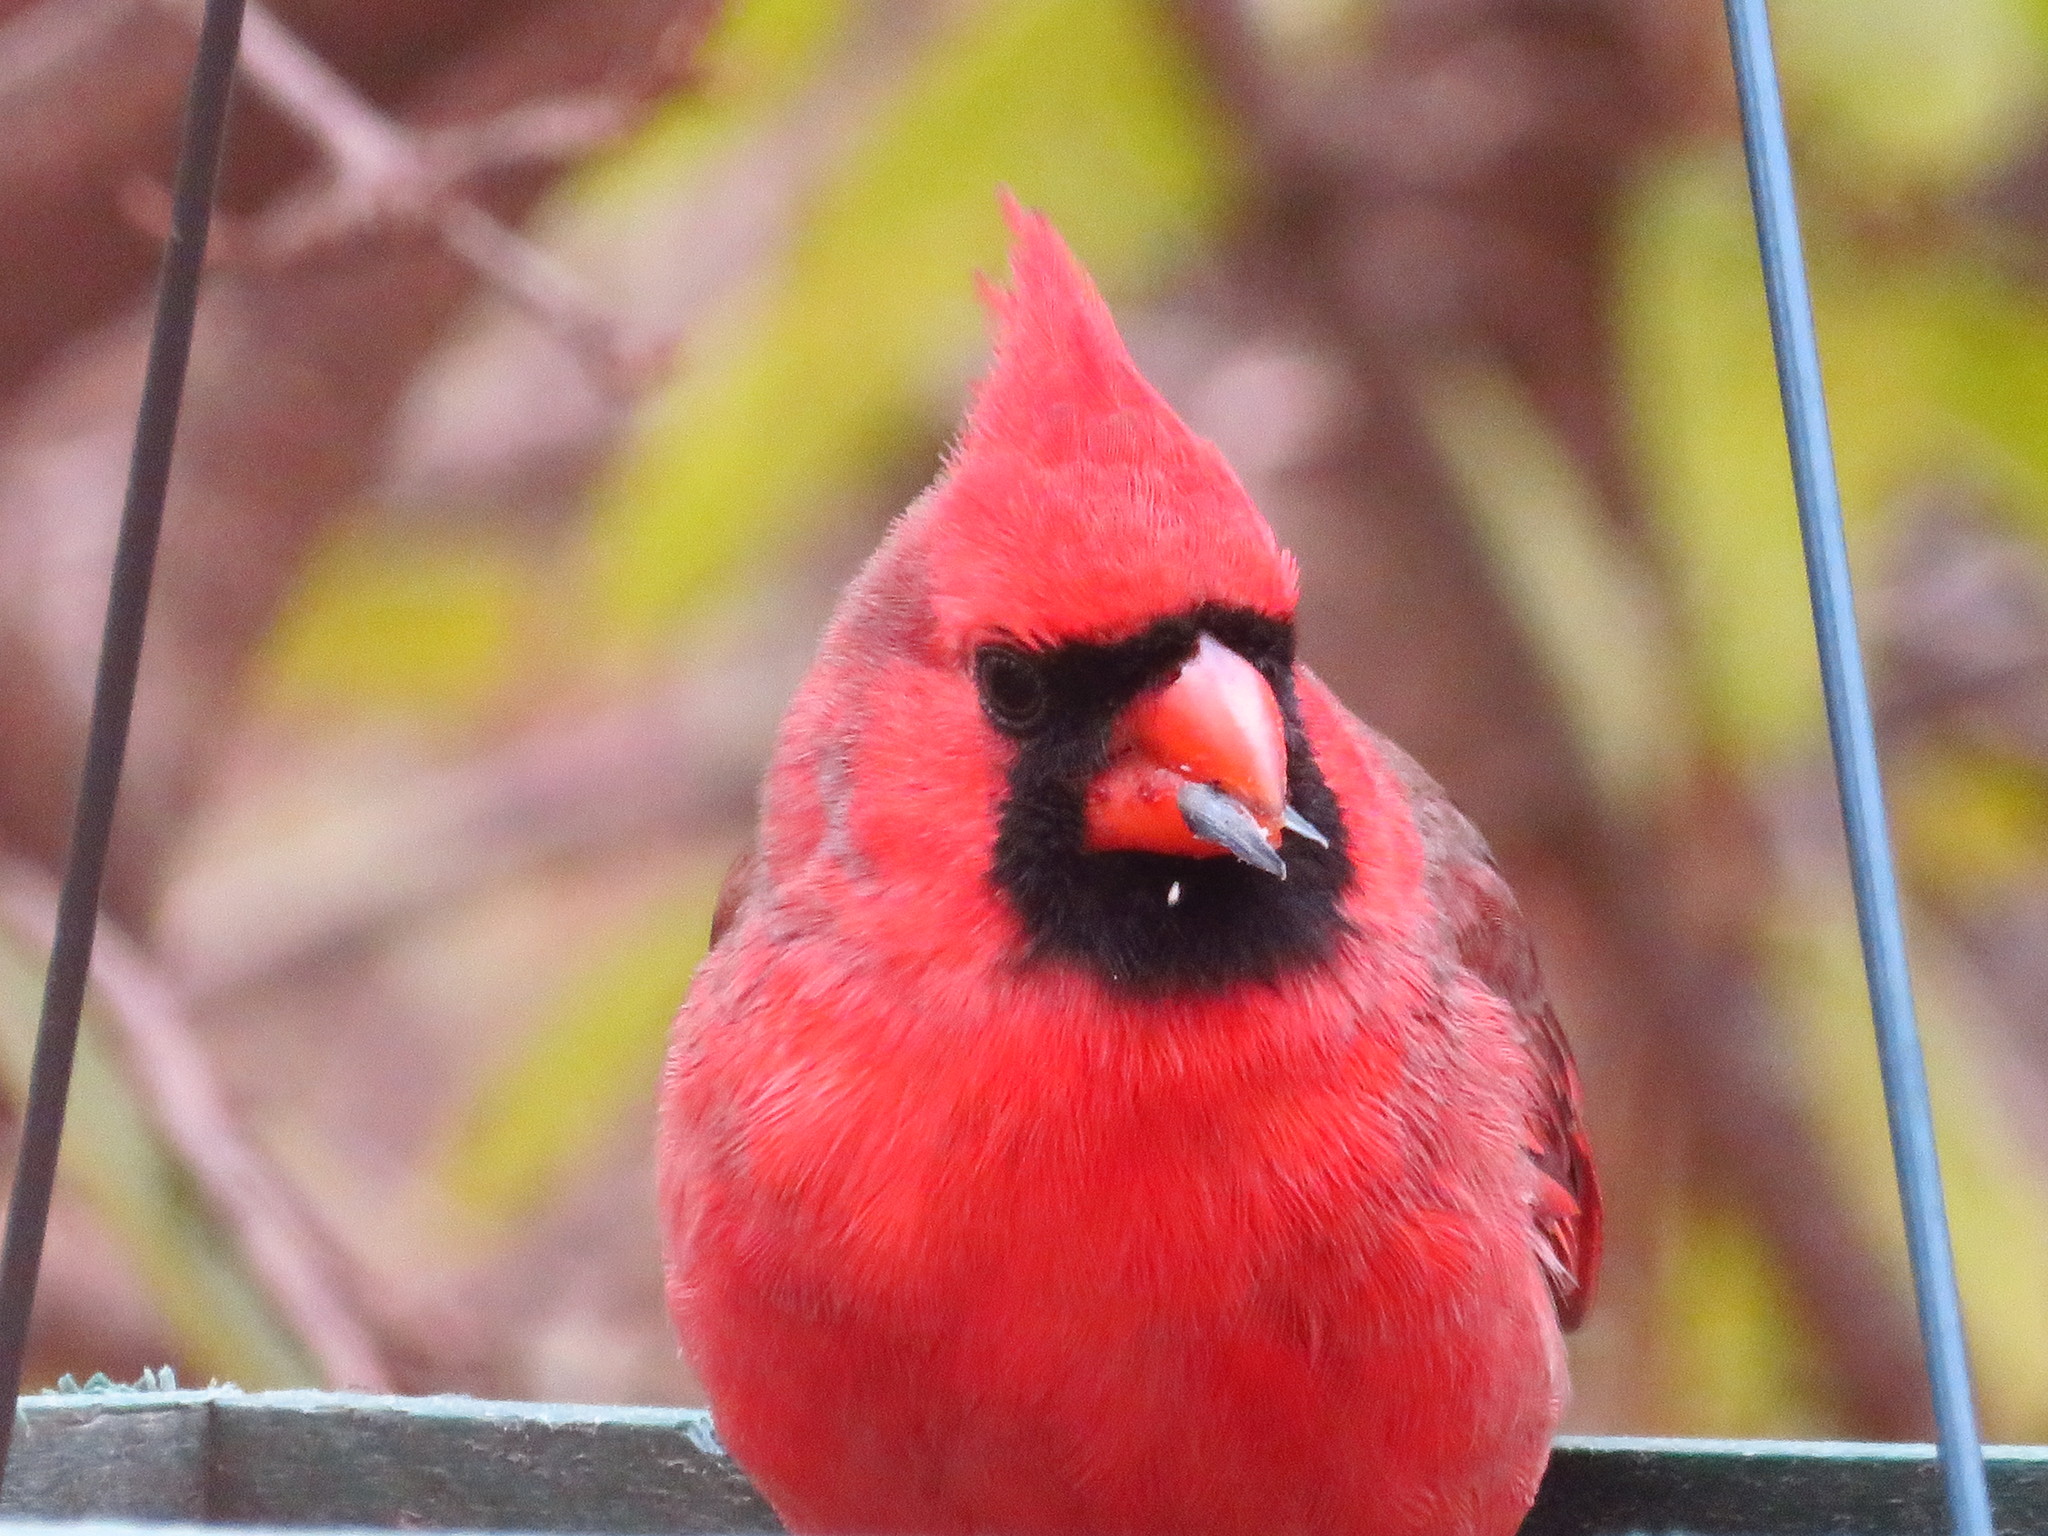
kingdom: Animalia
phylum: Chordata
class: Aves
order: Passeriformes
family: Cardinalidae
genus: Cardinalis
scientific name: Cardinalis cardinalis
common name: Northern cardinal
